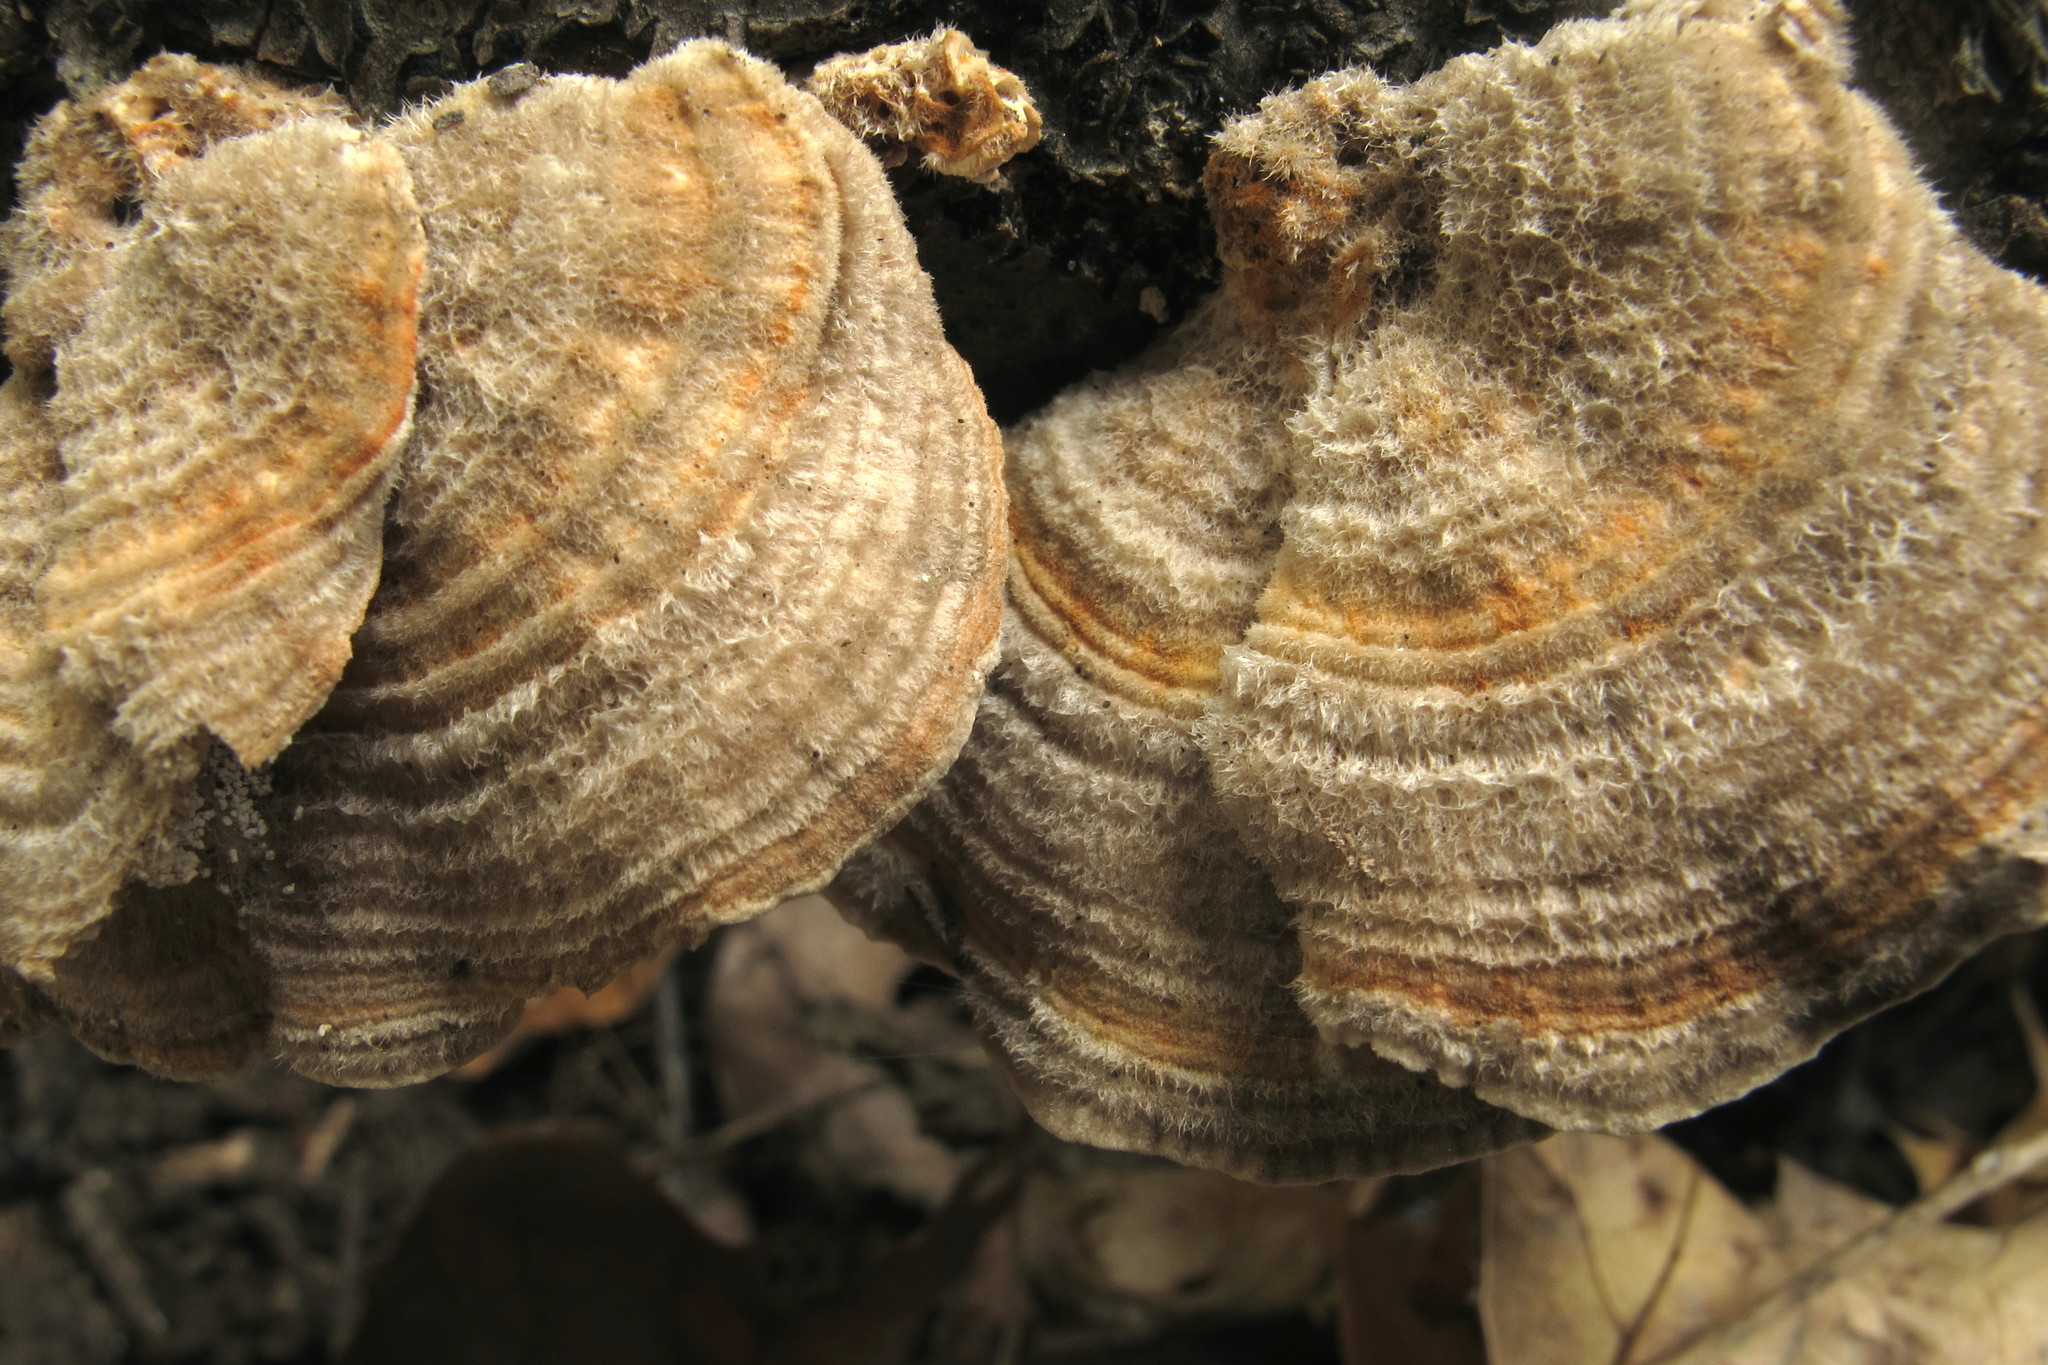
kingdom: Fungi
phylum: Basidiomycota
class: Agaricomycetes
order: Polyporales
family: Polyporaceae
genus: Lenzites
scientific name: Lenzites betulinus
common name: Birch mazegill
